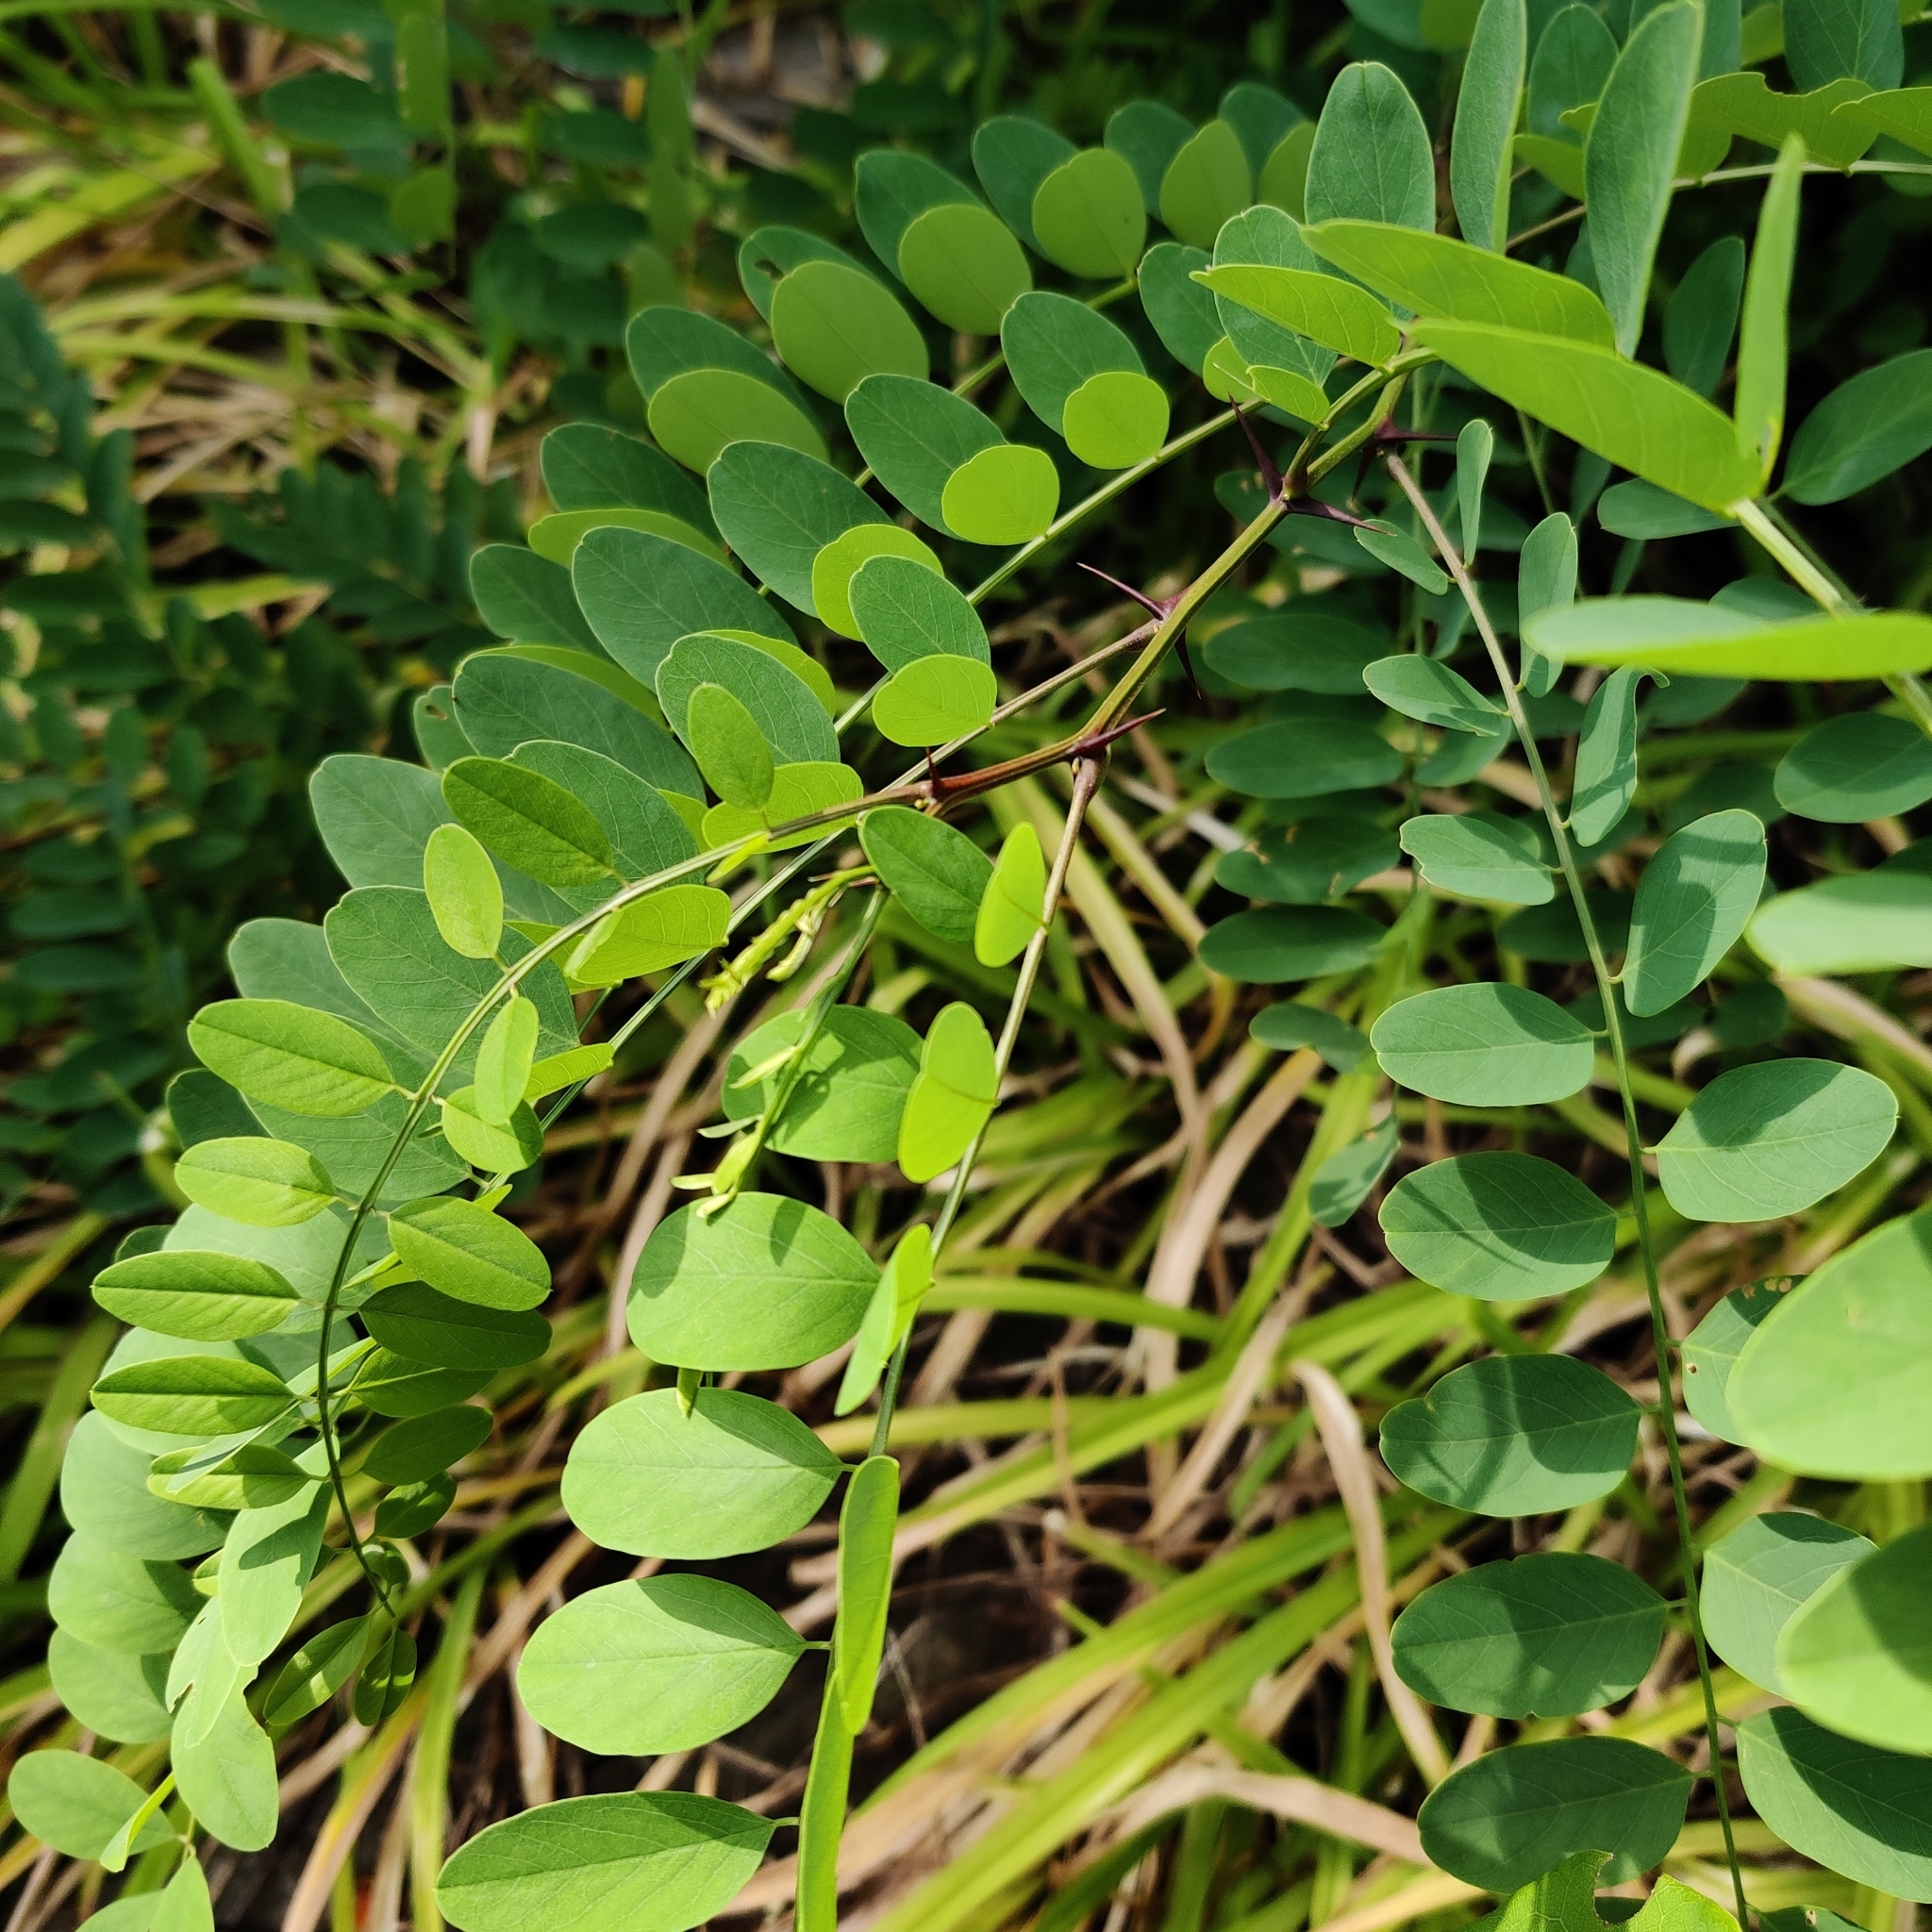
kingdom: Plantae
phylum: Tracheophyta
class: Magnoliopsida
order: Fabales
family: Fabaceae
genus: Robinia
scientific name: Robinia pseudoacacia
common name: Black locust
